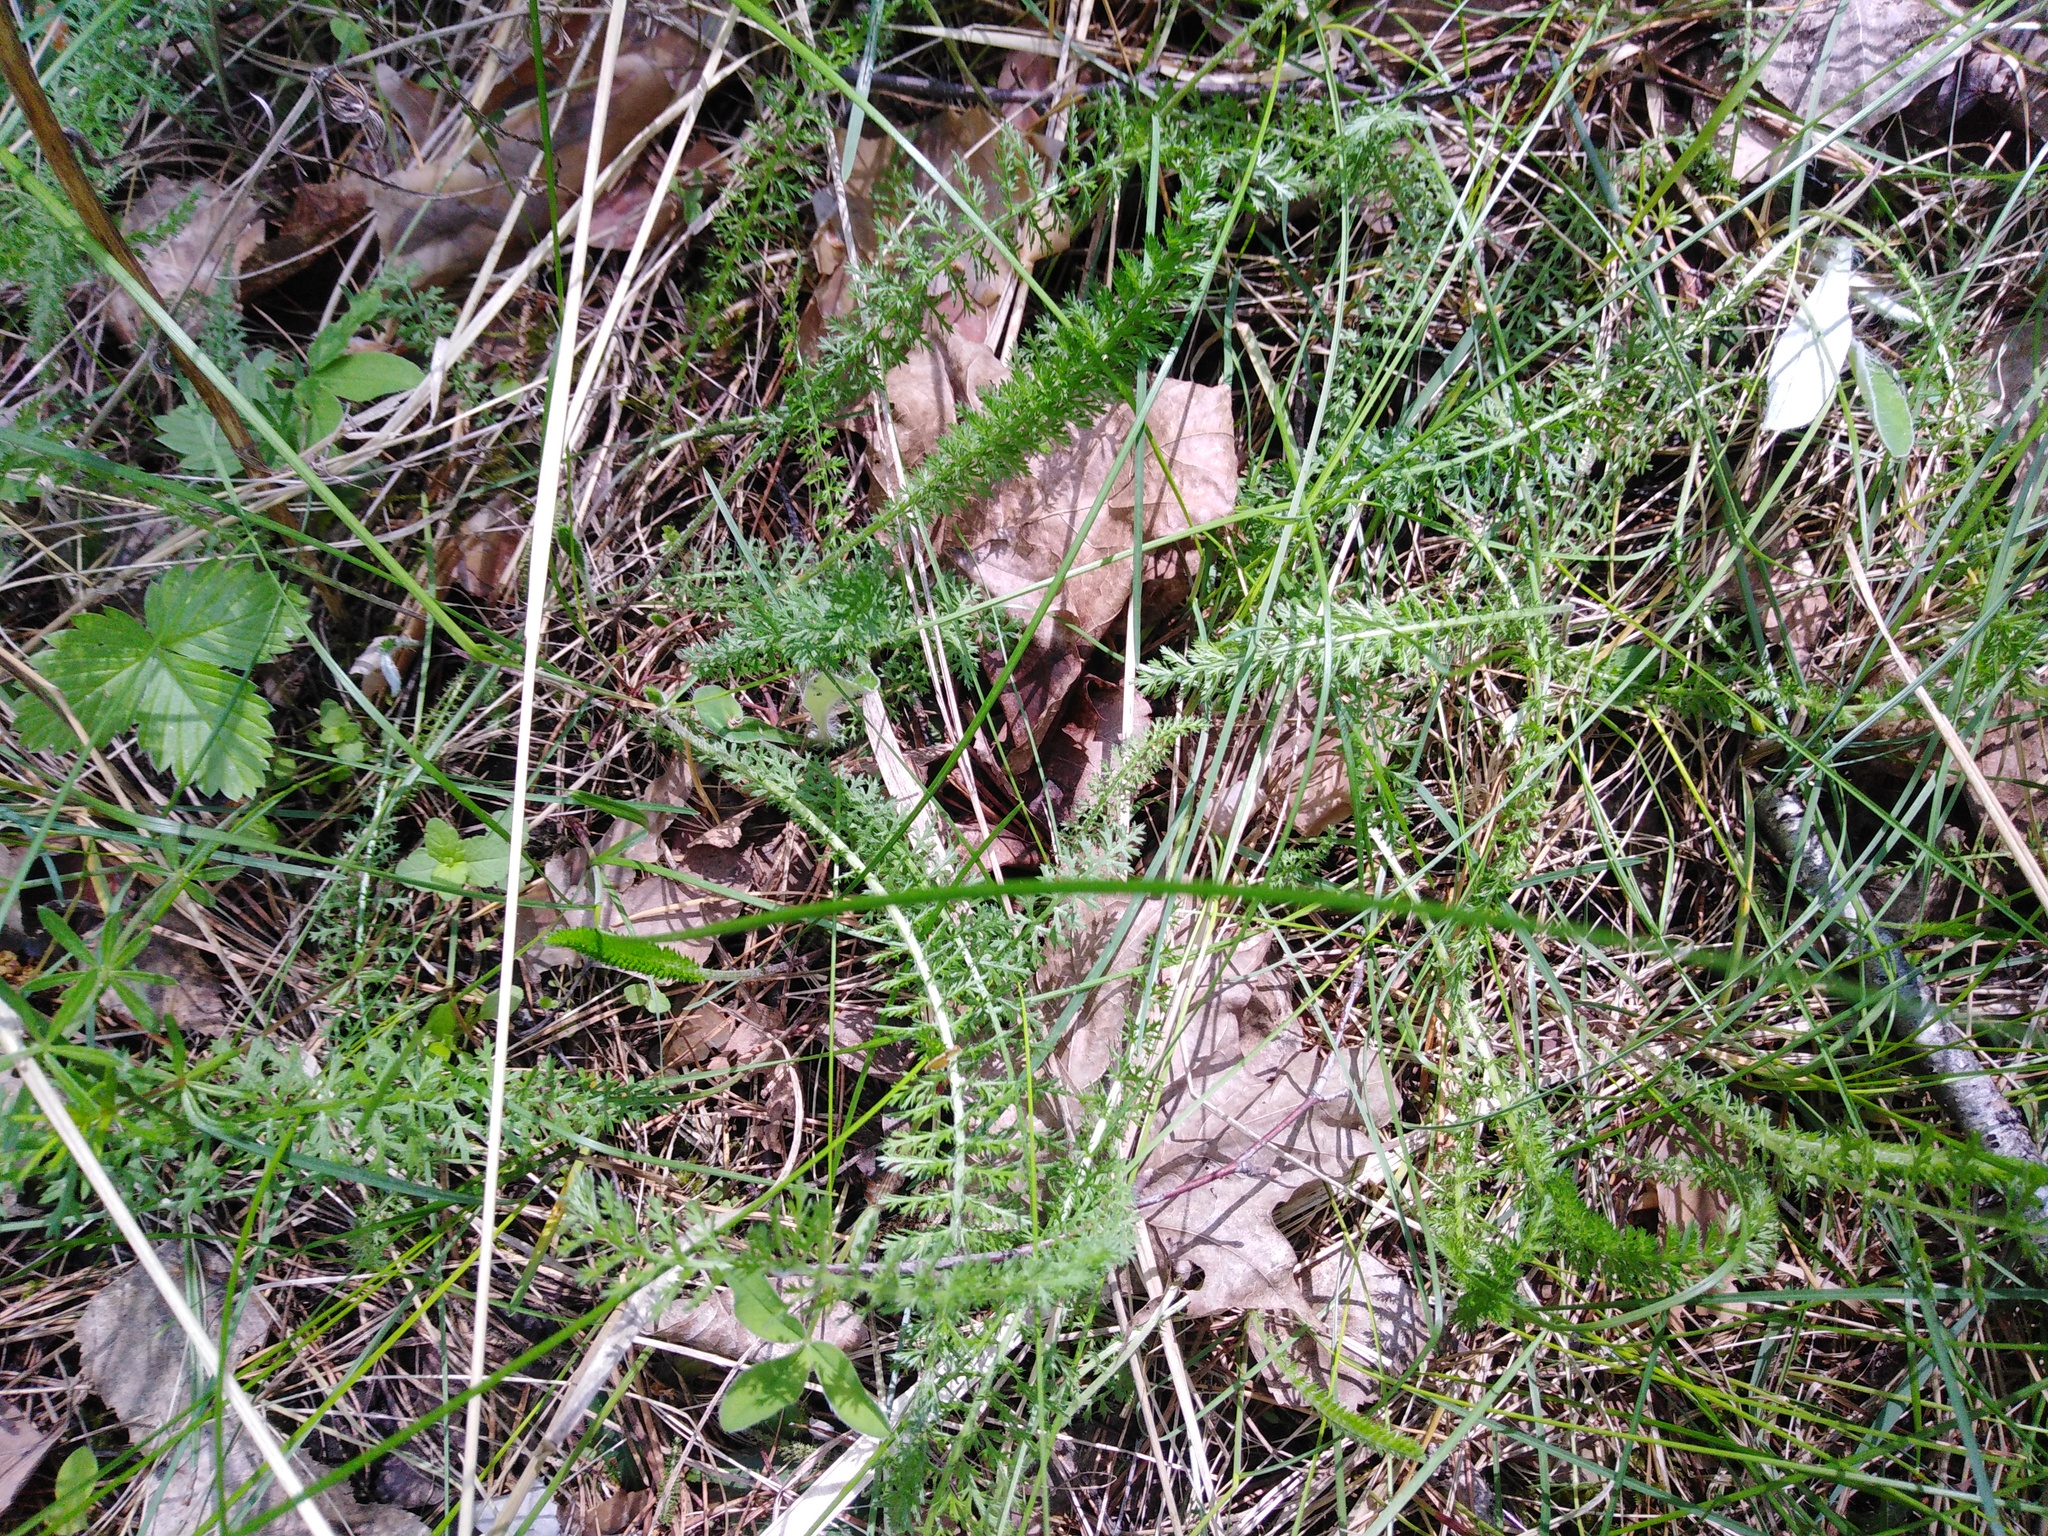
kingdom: Plantae
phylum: Tracheophyta
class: Magnoliopsida
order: Asterales
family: Asteraceae
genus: Achillea
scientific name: Achillea millefolium
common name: Yarrow
